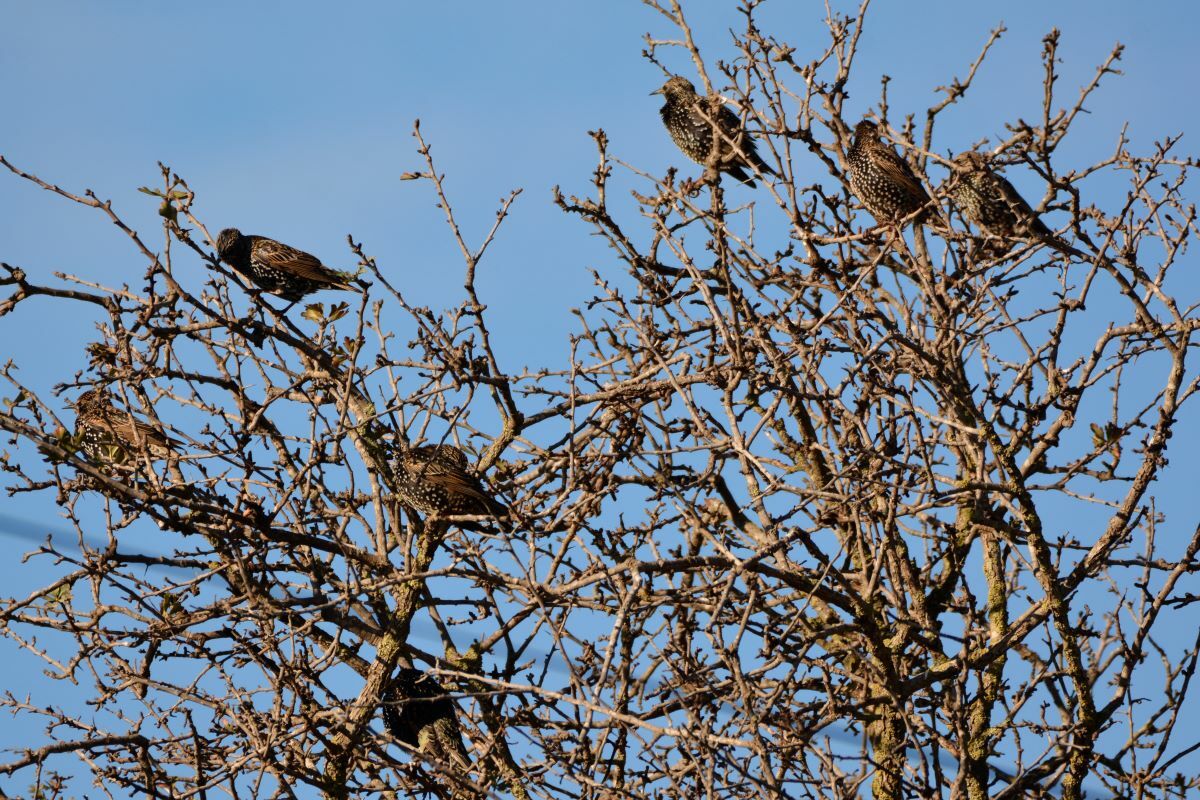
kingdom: Animalia
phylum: Chordata
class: Aves
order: Passeriformes
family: Sturnidae
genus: Sturnus
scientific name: Sturnus vulgaris
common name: Common starling
